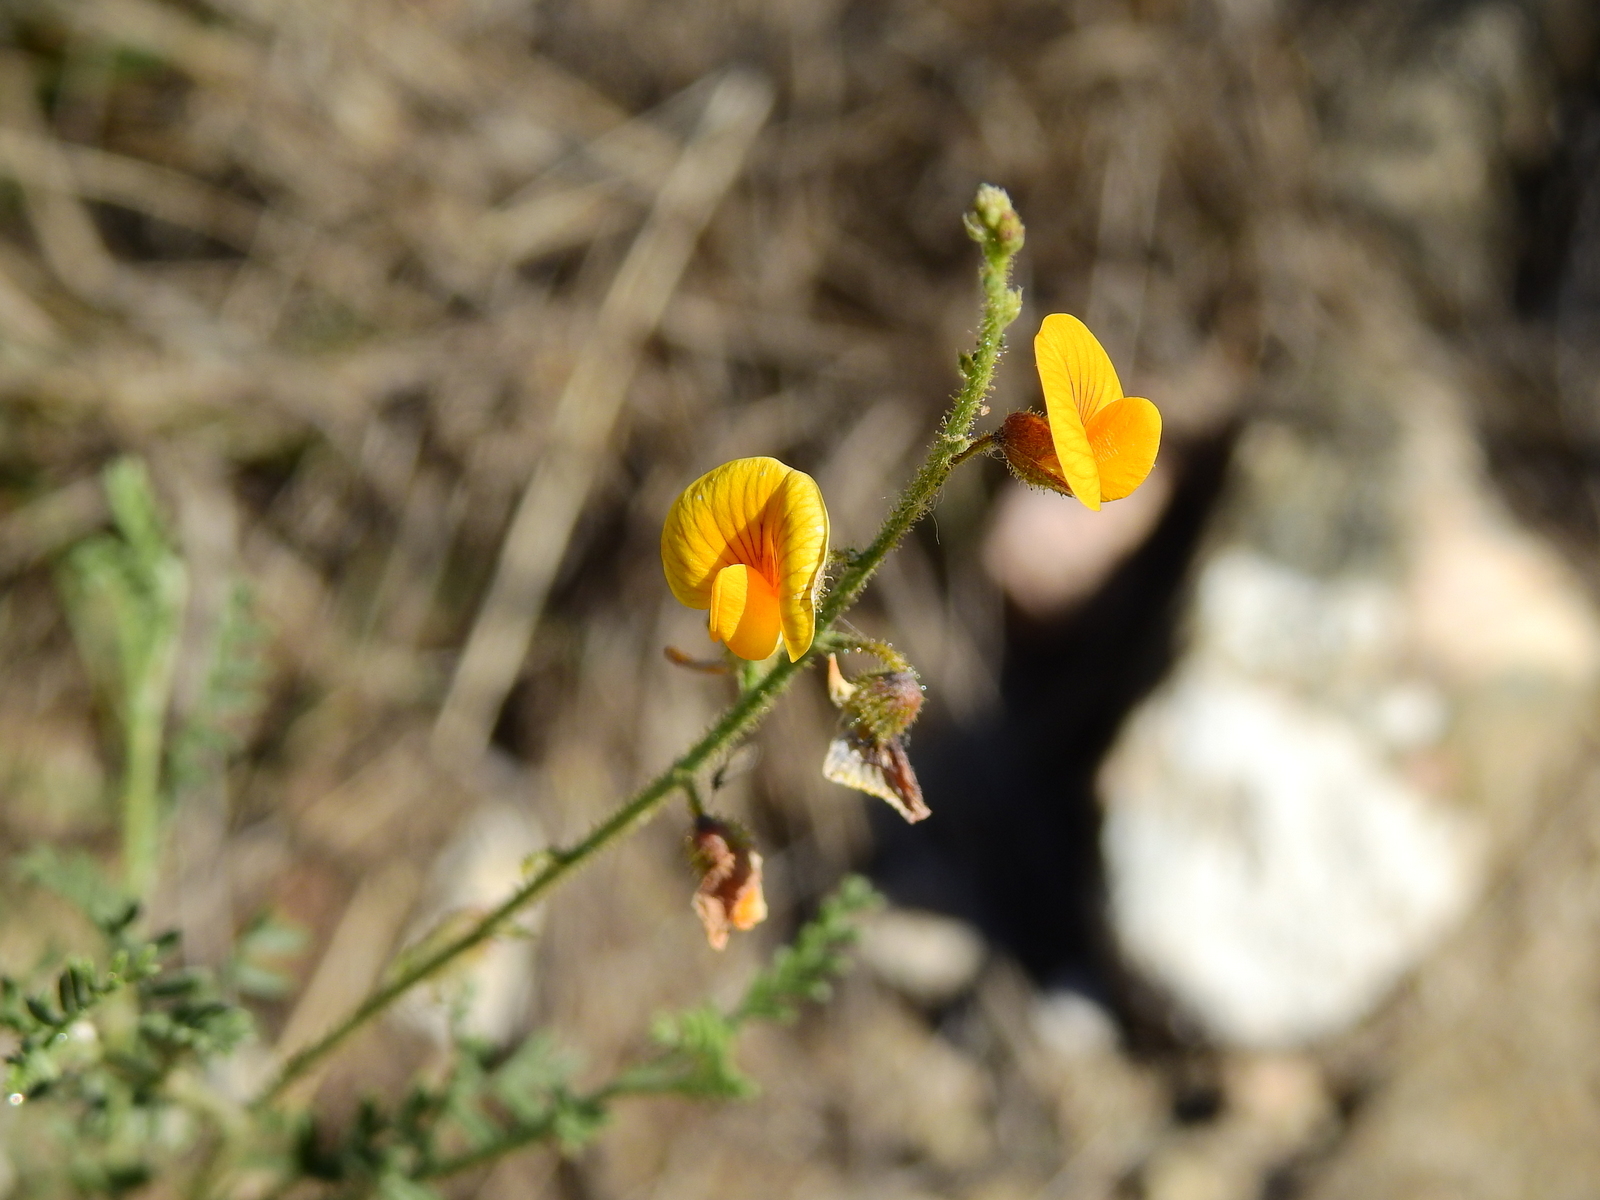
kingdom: Plantae
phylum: Tracheophyta
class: Magnoliopsida
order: Fabales
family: Fabaceae
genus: Adesmia
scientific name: Adesmia muricata
